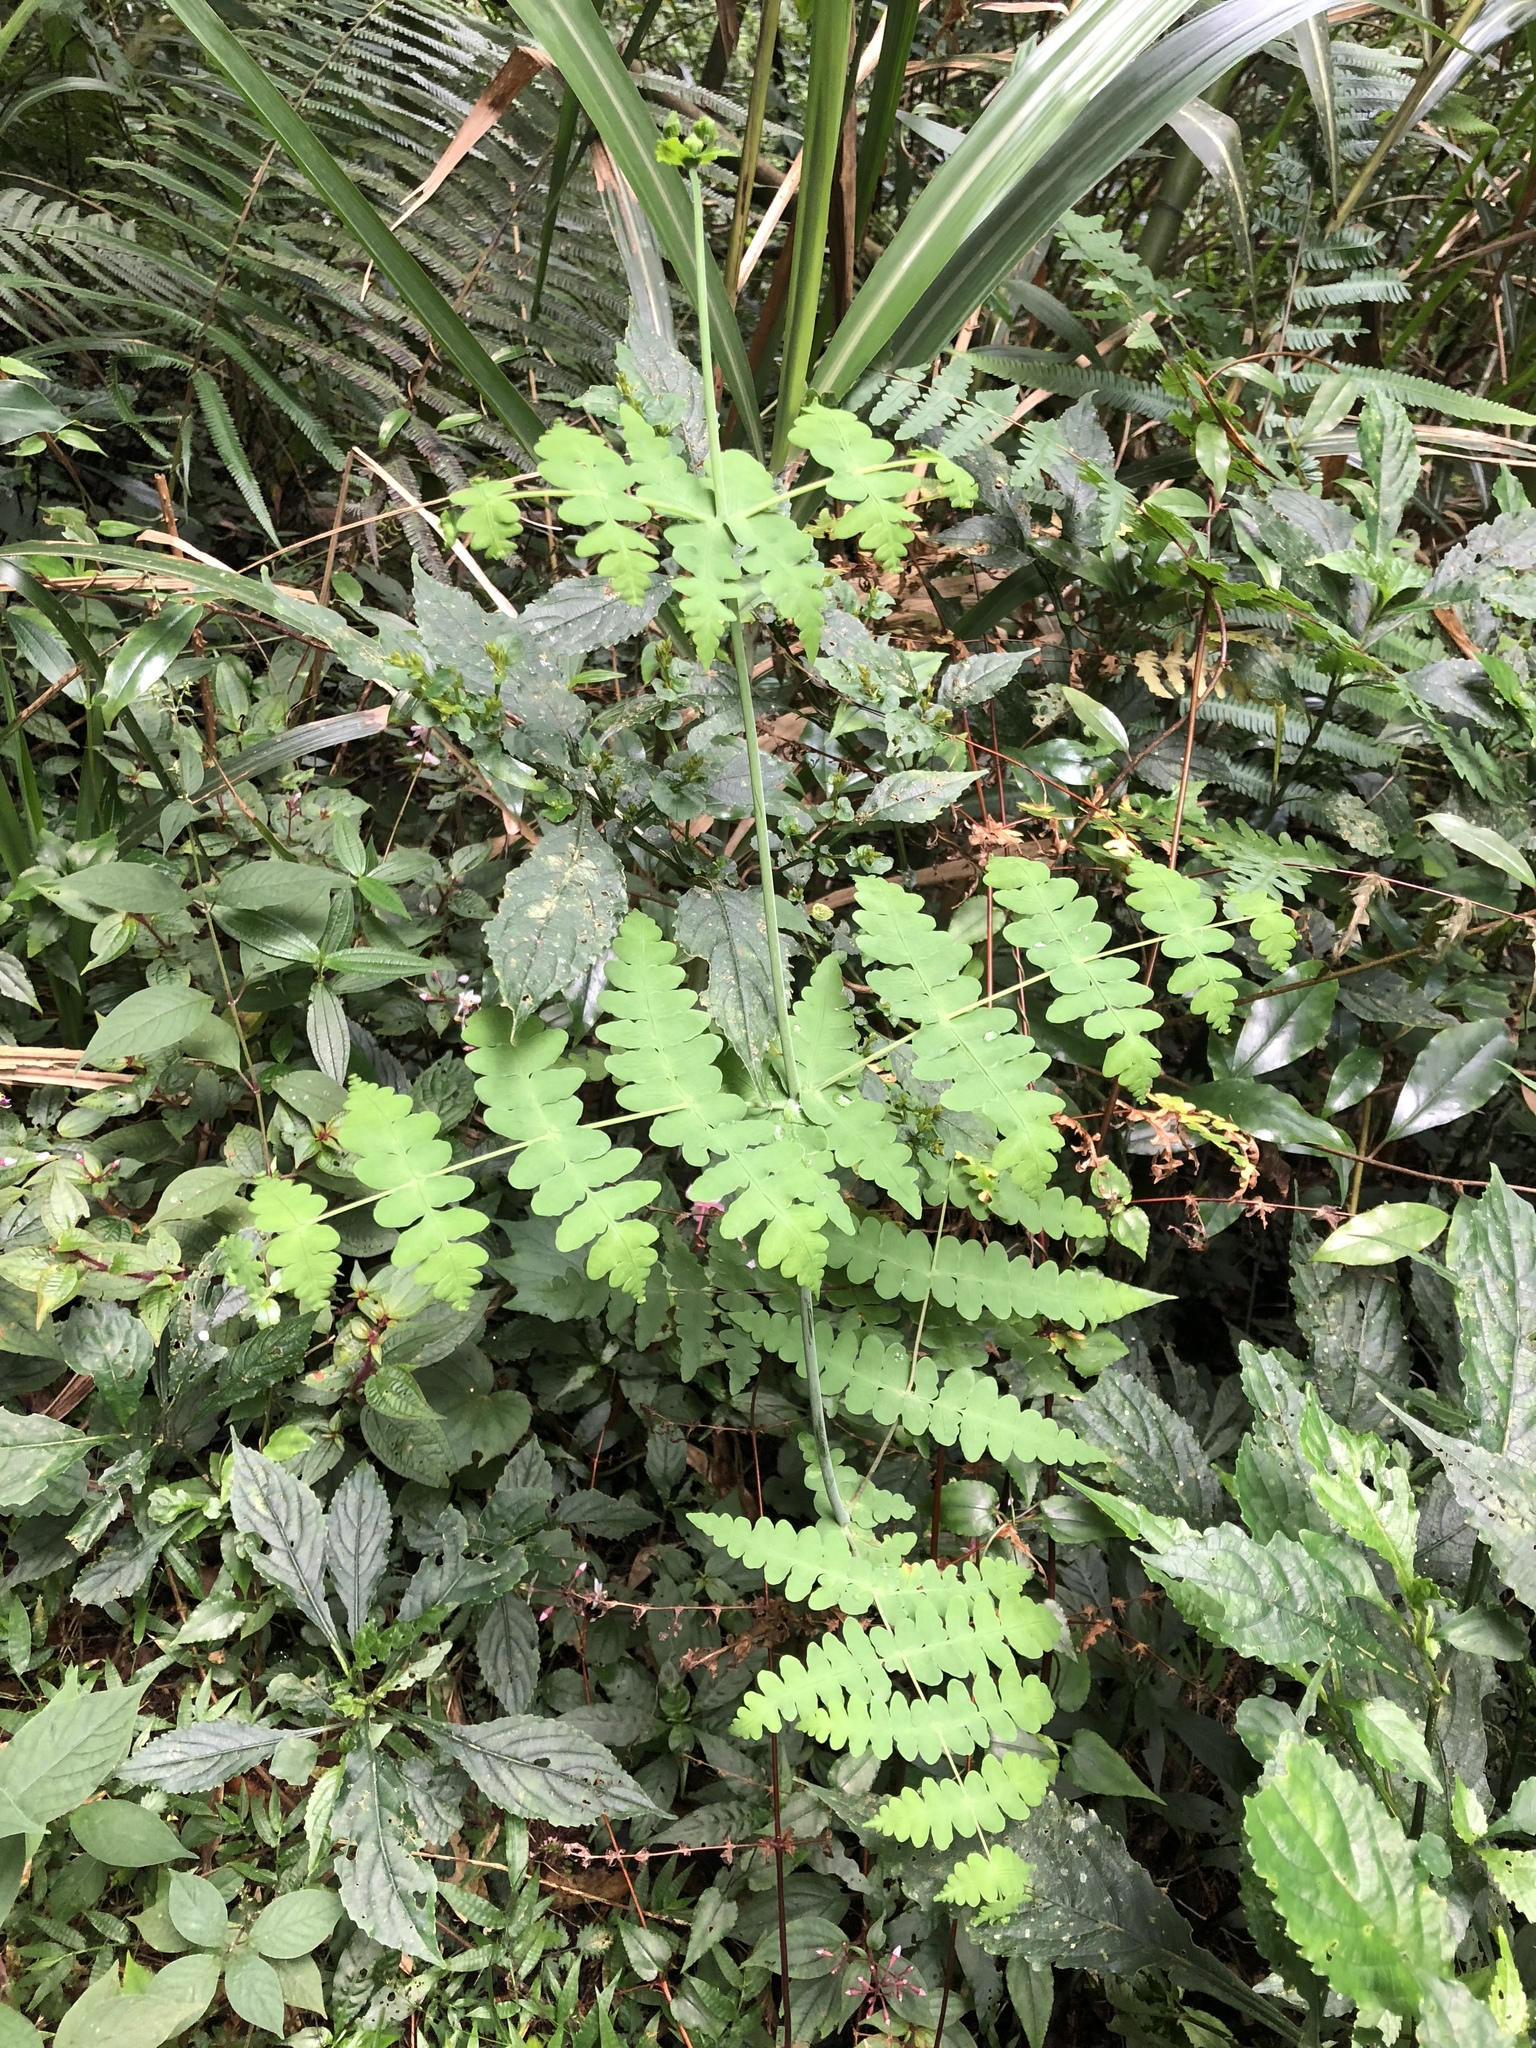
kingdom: Plantae
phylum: Tracheophyta
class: Polypodiopsida
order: Polypodiales
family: Dennstaedtiaceae
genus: Histiopteris
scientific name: Histiopteris incisa
